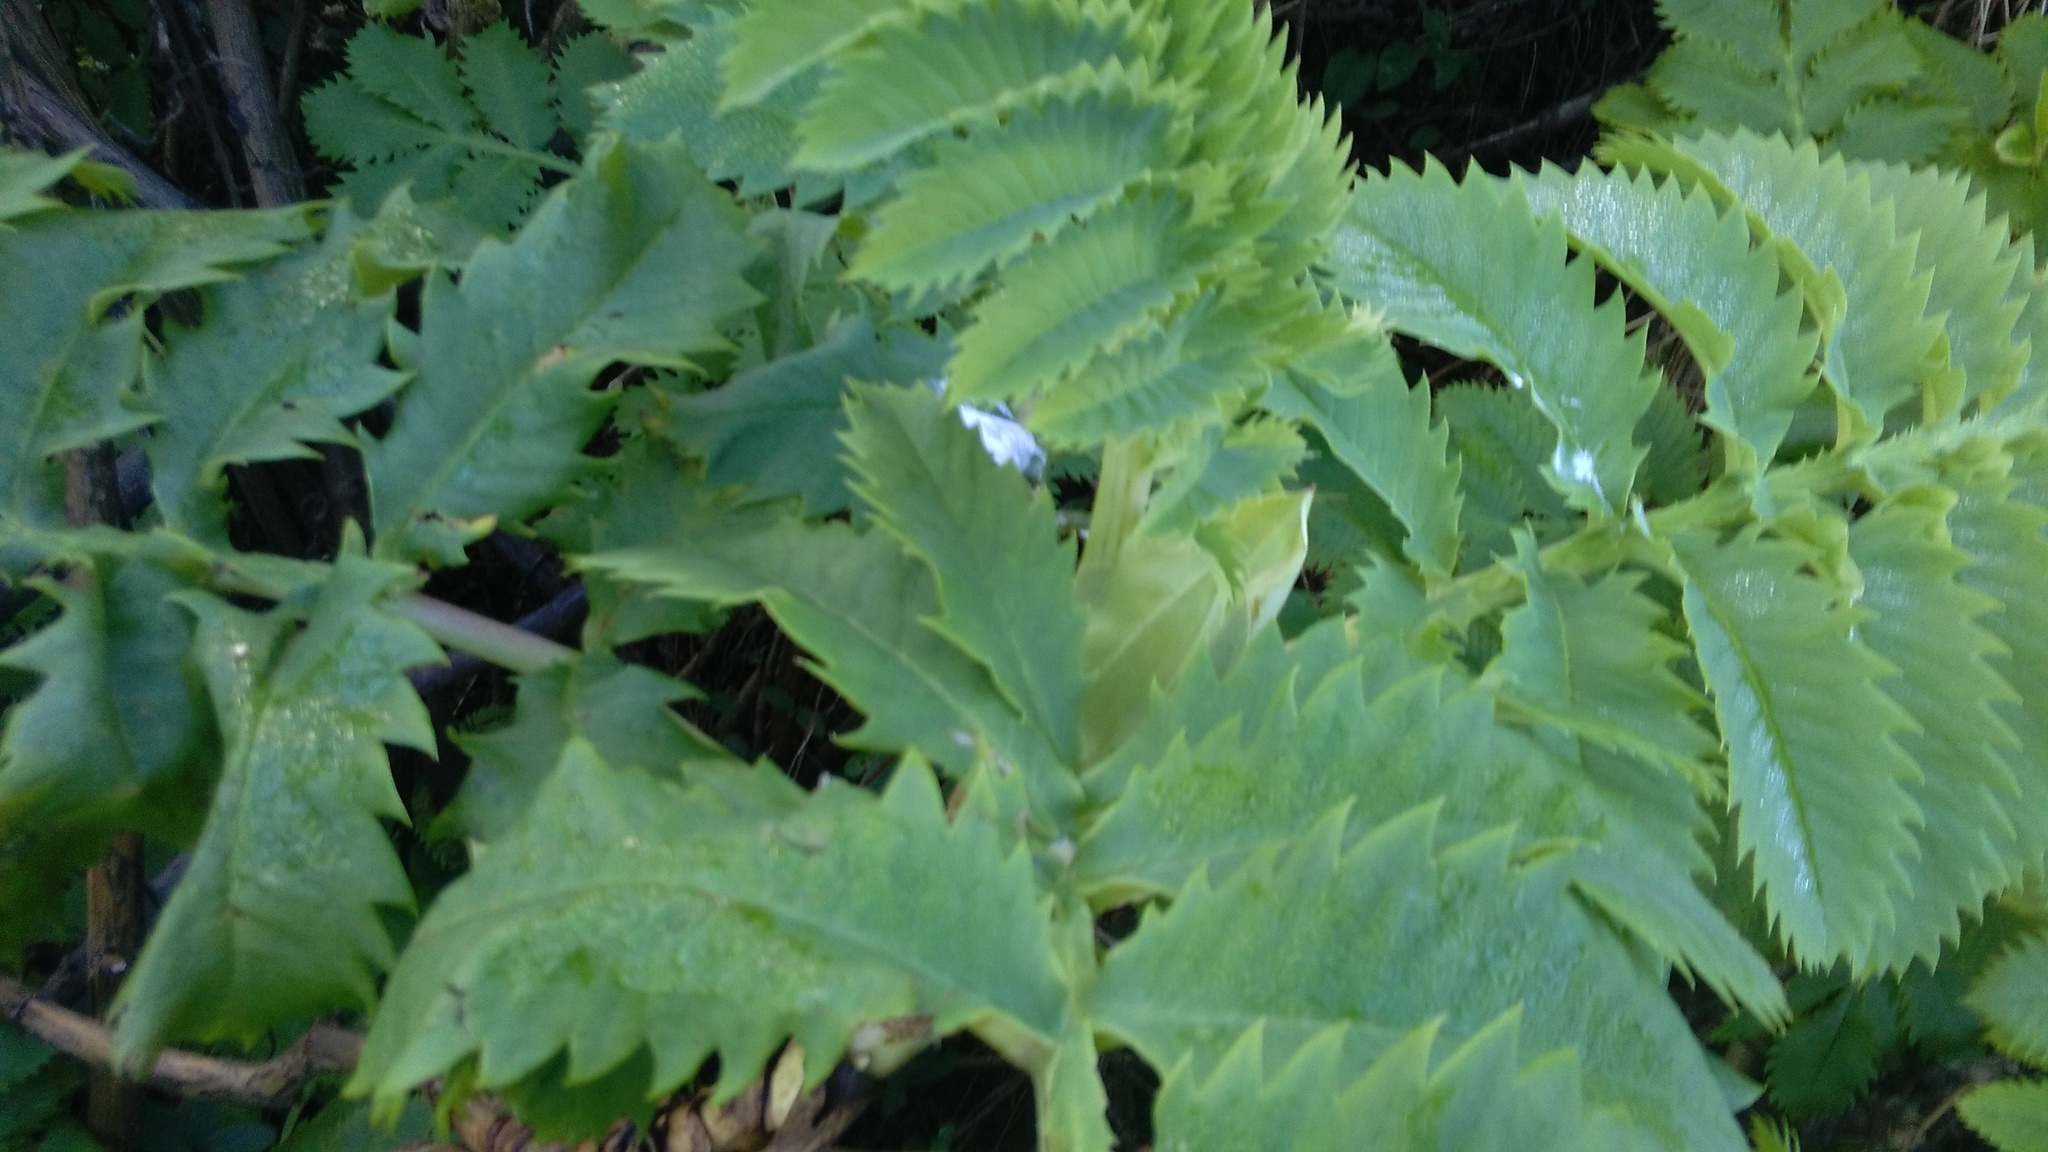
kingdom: Plantae
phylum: Tracheophyta
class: Magnoliopsida
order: Geraniales
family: Melianthaceae
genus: Melianthus
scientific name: Melianthus major
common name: Honey-flower
